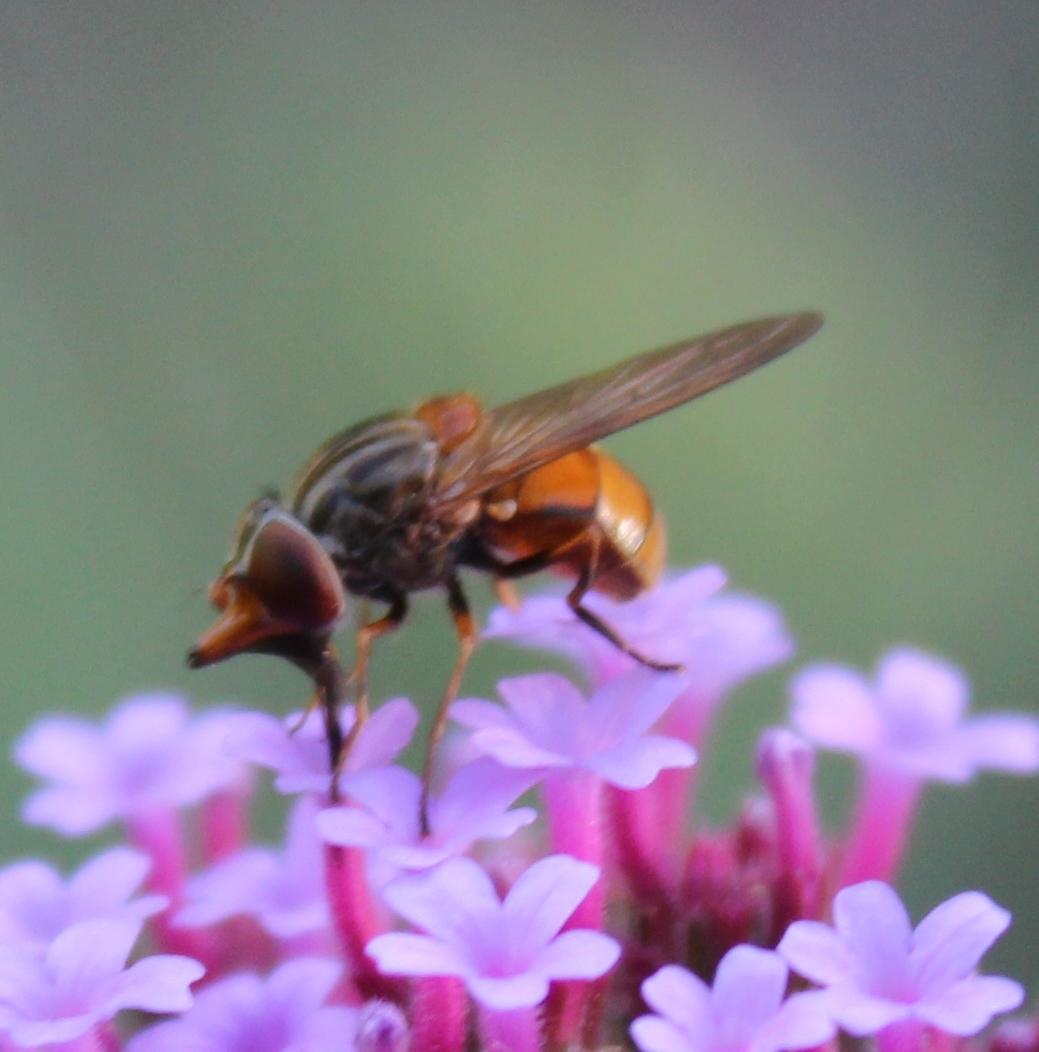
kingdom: Animalia
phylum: Arthropoda
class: Insecta
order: Diptera
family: Syrphidae
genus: Rhingia
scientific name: Rhingia campestris
